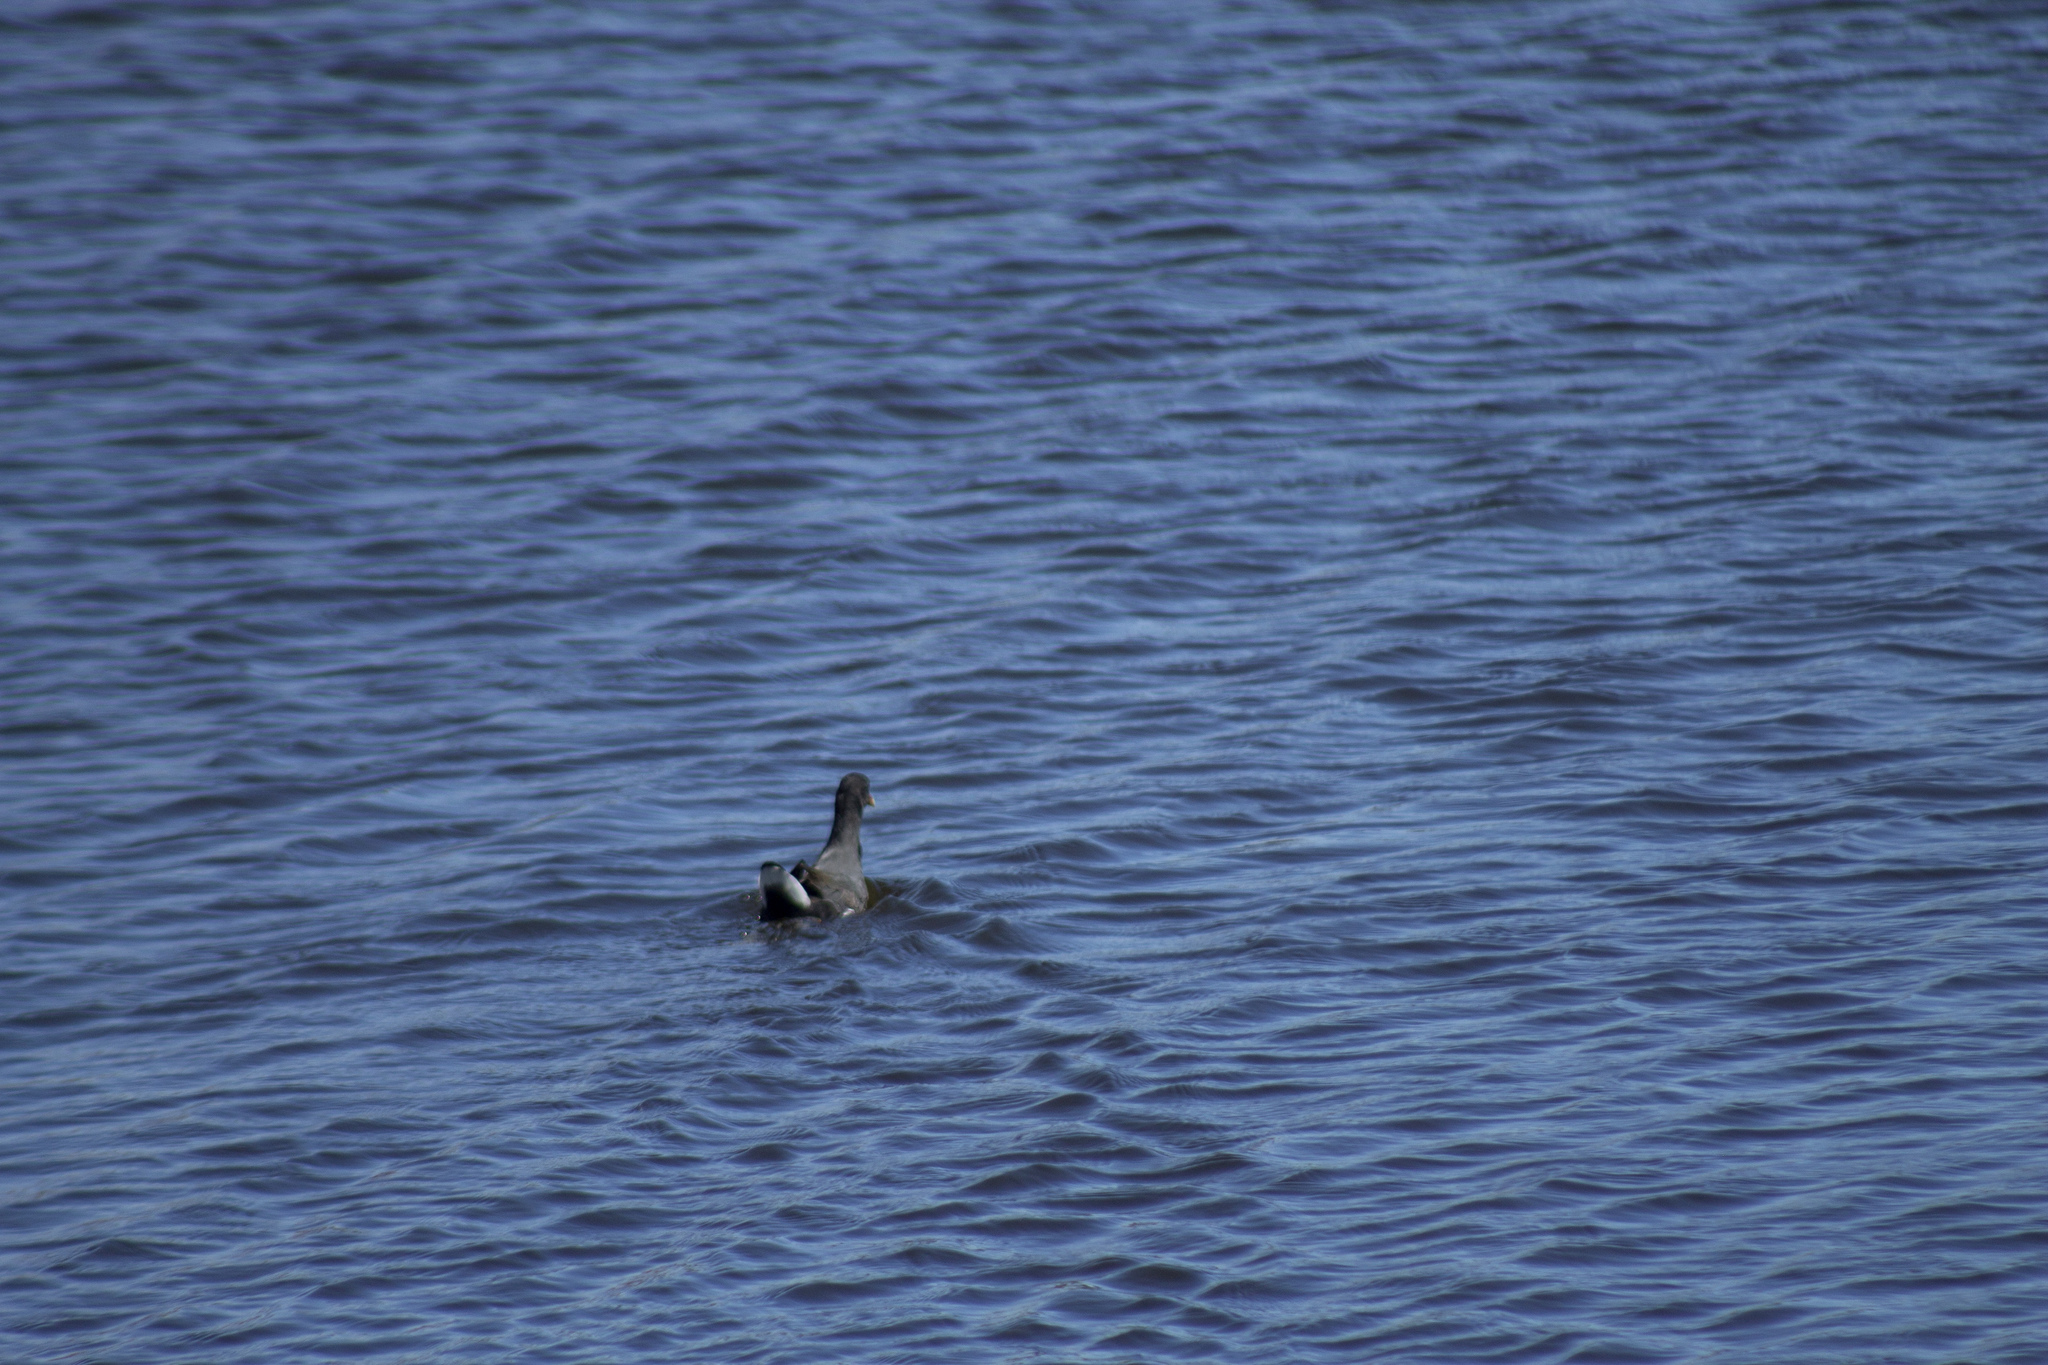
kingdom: Animalia
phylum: Chordata
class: Aves
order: Gruiformes
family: Rallidae
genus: Gallinula
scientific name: Gallinula chloropus
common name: Common moorhen
